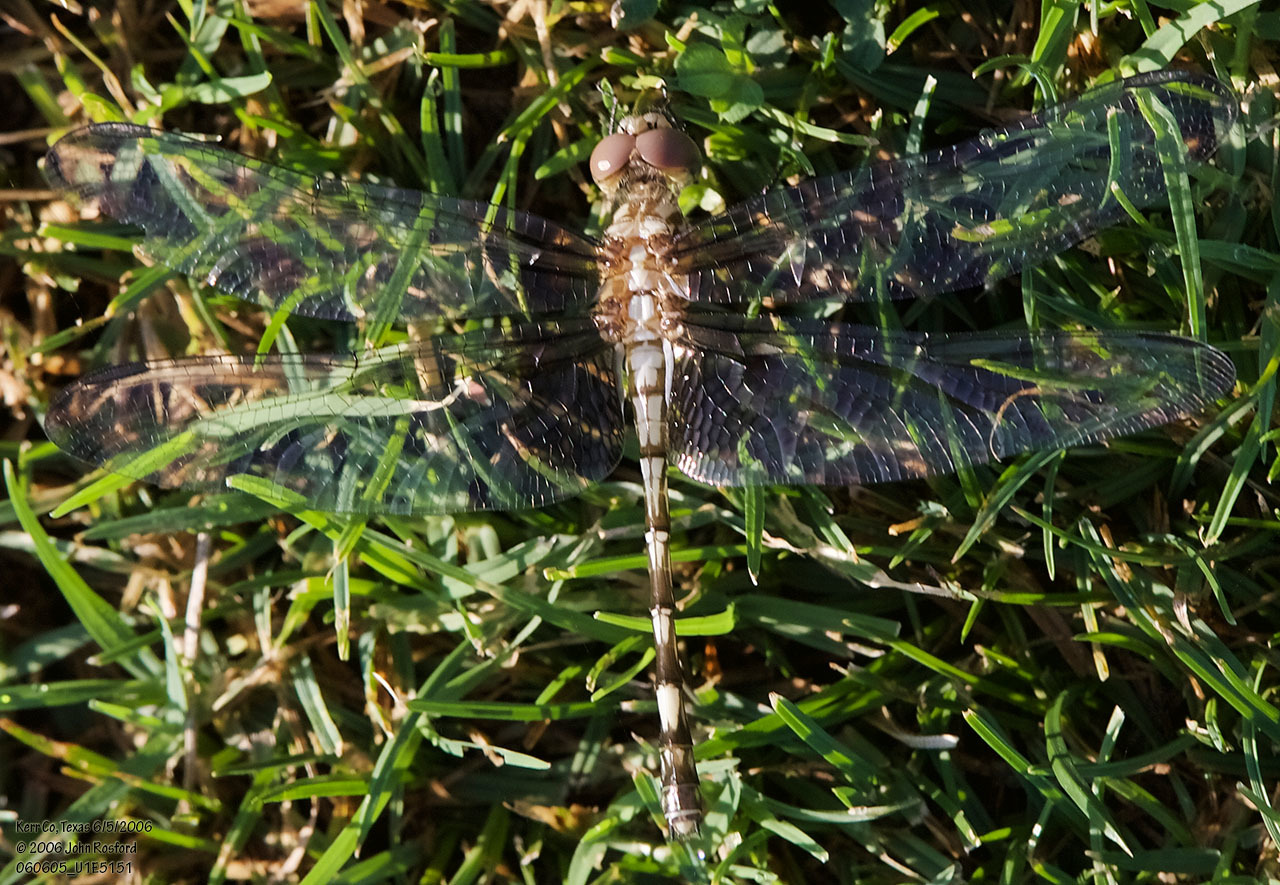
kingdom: Animalia
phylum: Arthropoda
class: Insecta
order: Odonata
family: Libellulidae
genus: Dythemis
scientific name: Dythemis fugax
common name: Checkered setwing
